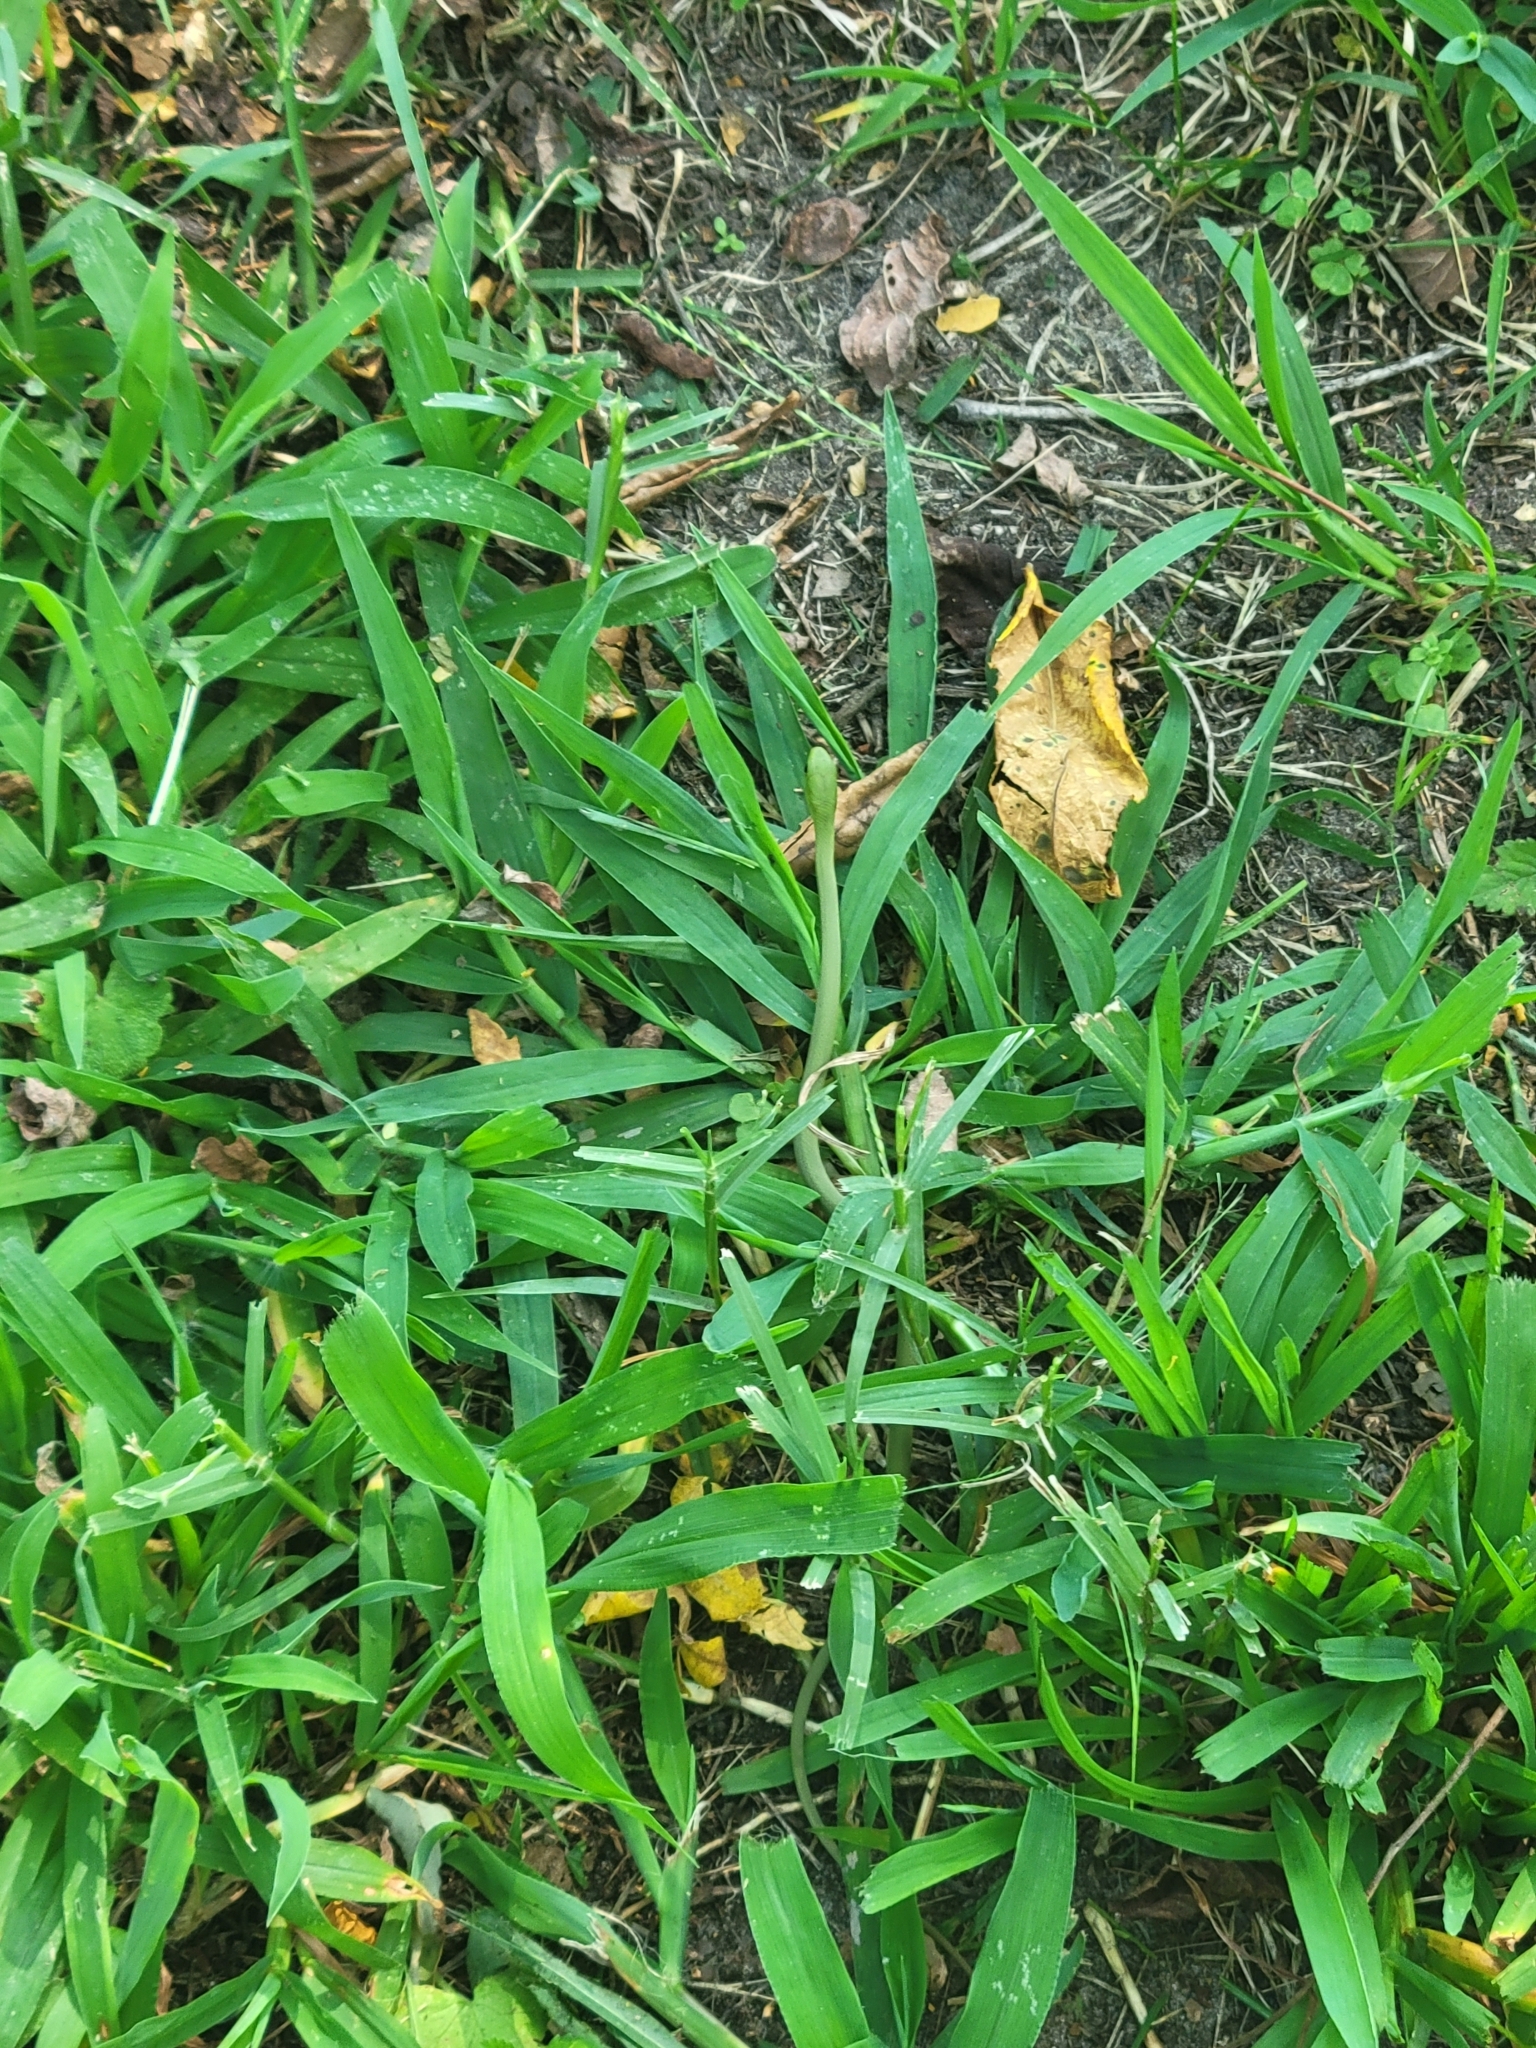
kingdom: Animalia
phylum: Chordata
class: Squamata
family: Colubridae
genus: Opheodrys
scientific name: Opheodrys aestivus
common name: Rough greensnake
